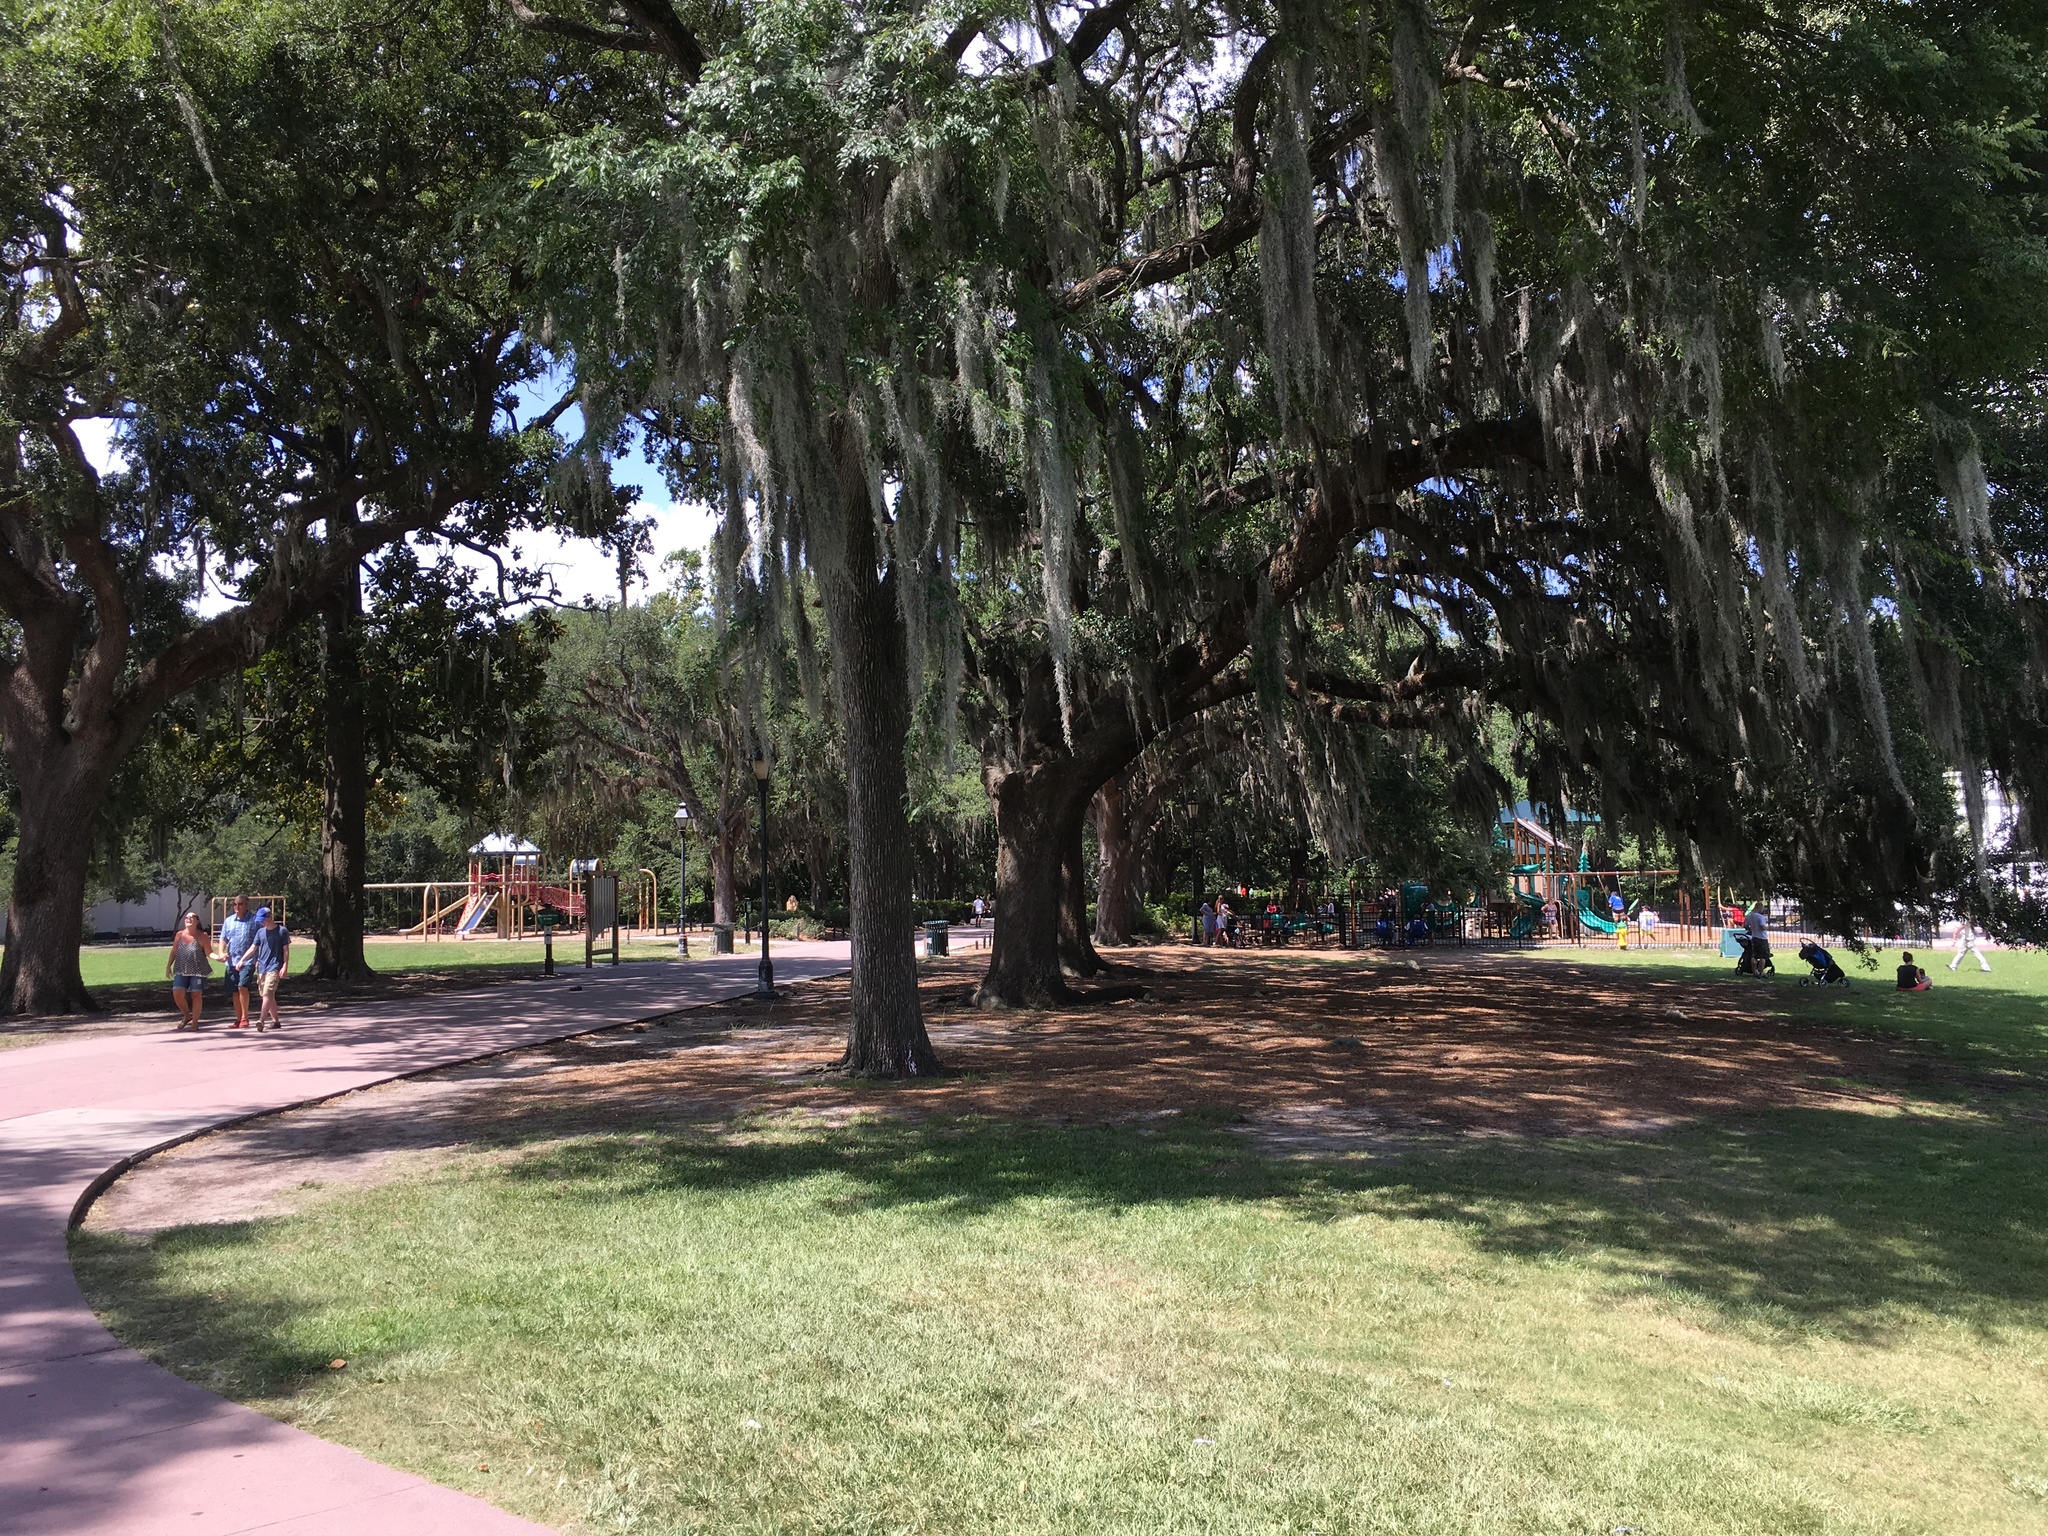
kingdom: Plantae
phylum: Tracheophyta
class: Liliopsida
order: Poales
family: Bromeliaceae
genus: Tillandsia
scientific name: Tillandsia usneoides
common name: Spanish moss
